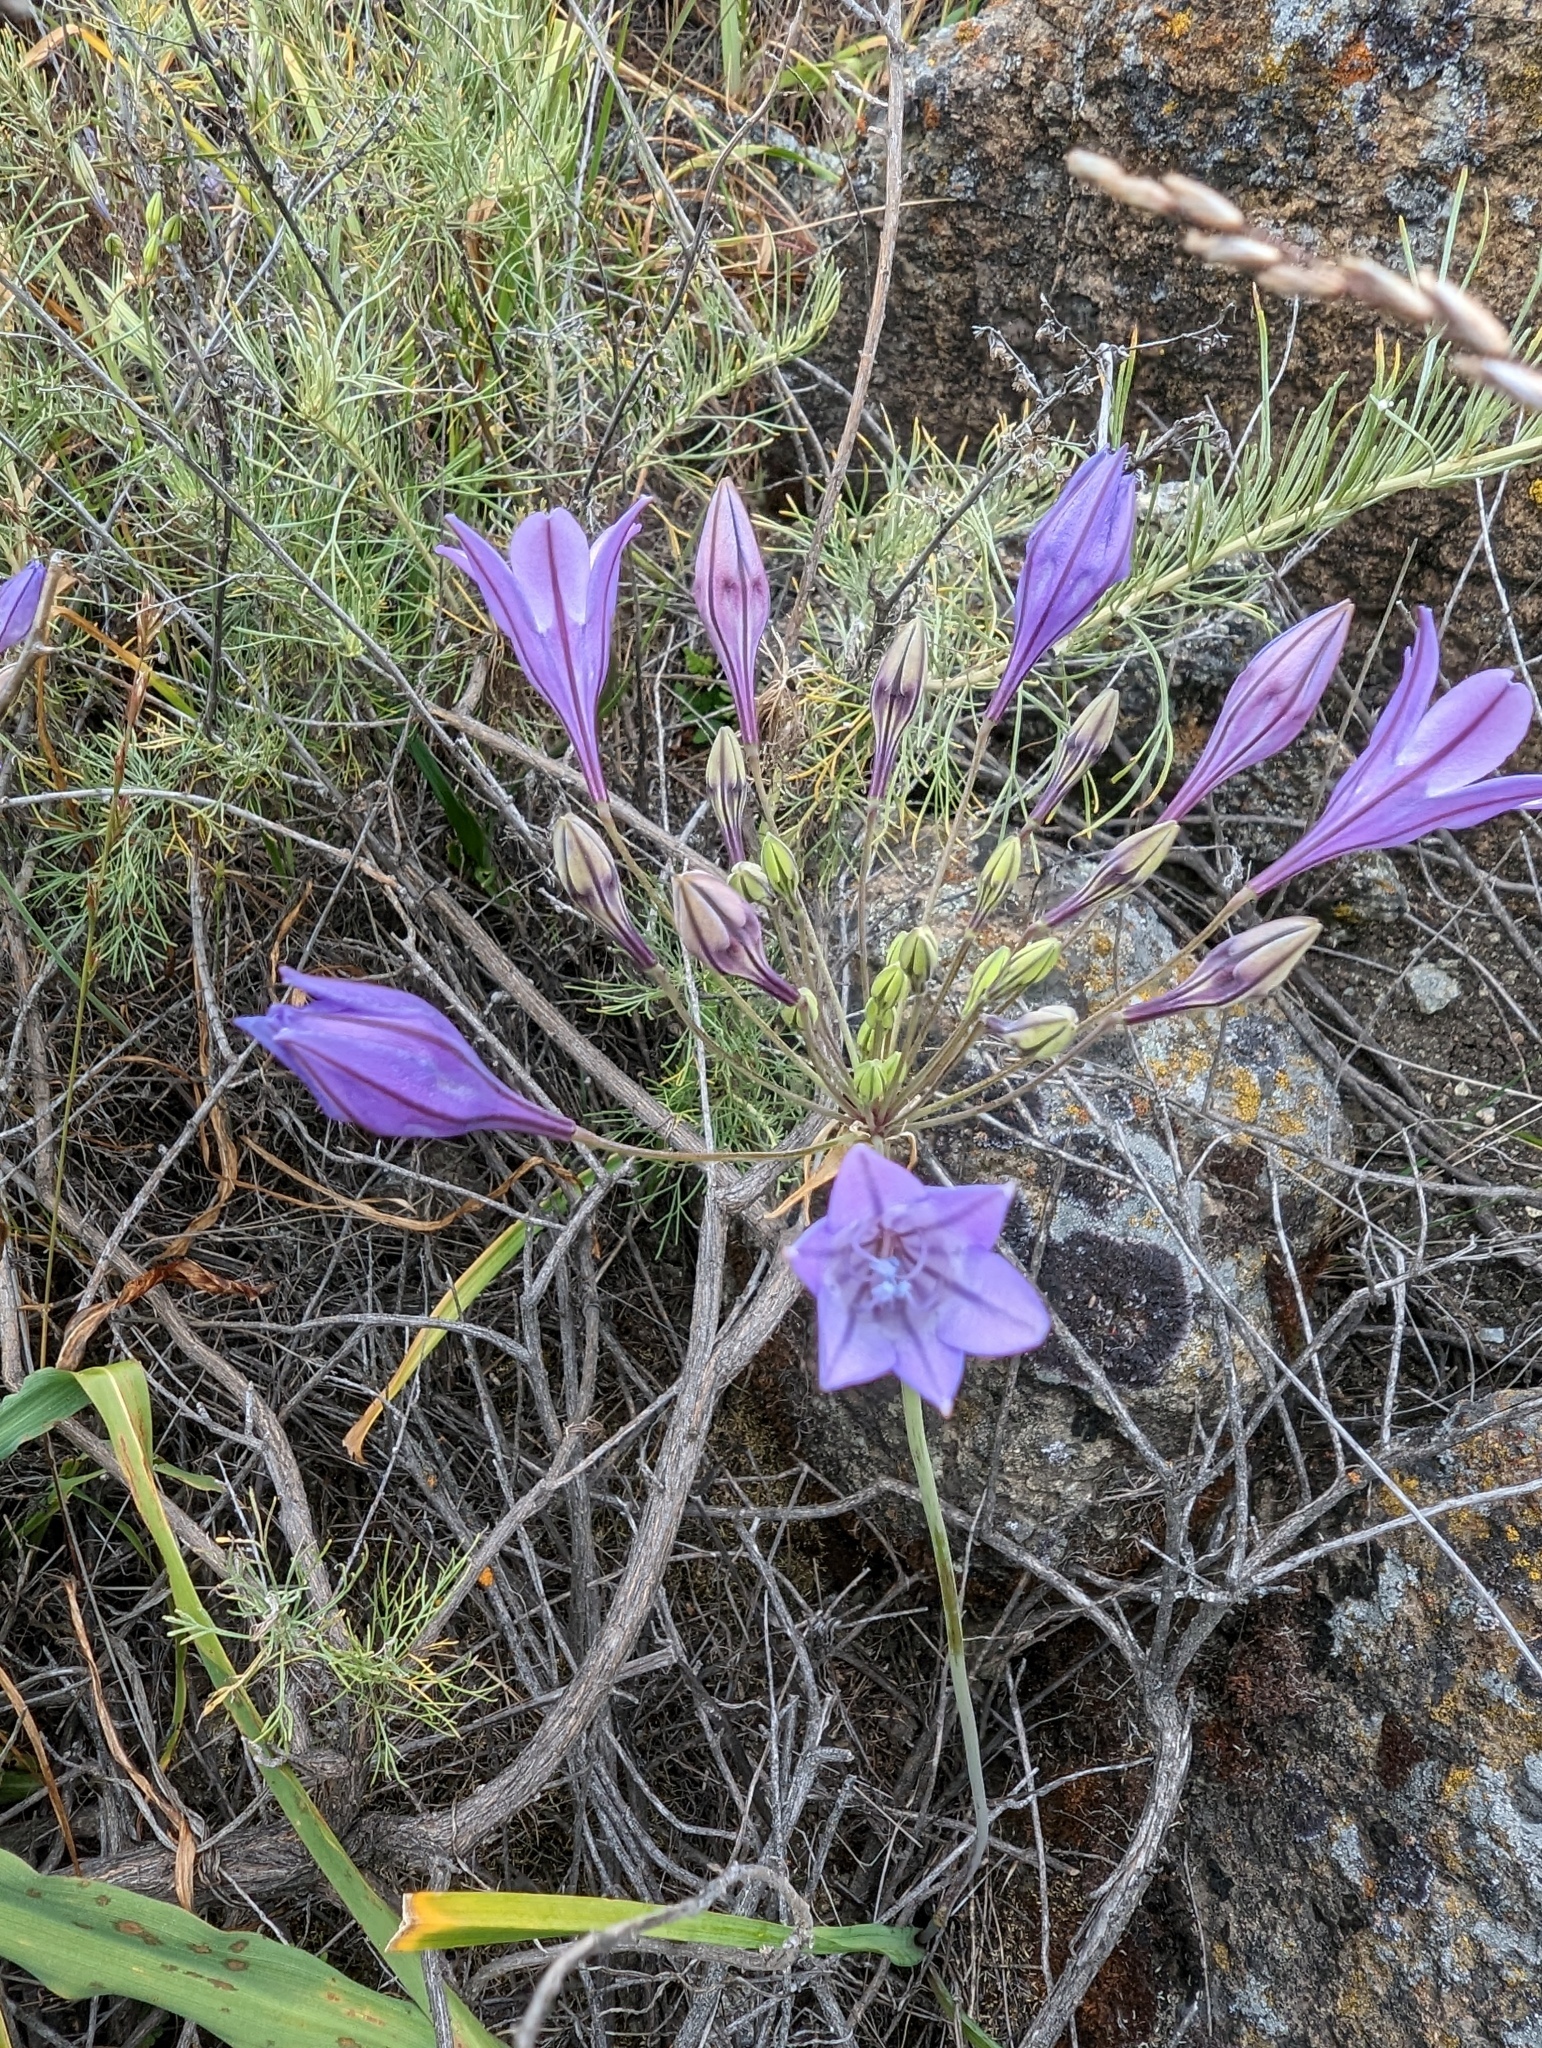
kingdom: Plantae
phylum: Tracheophyta
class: Liliopsida
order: Asparagales
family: Asparagaceae
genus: Triteleia
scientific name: Triteleia laxa
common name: Triplet-lily
